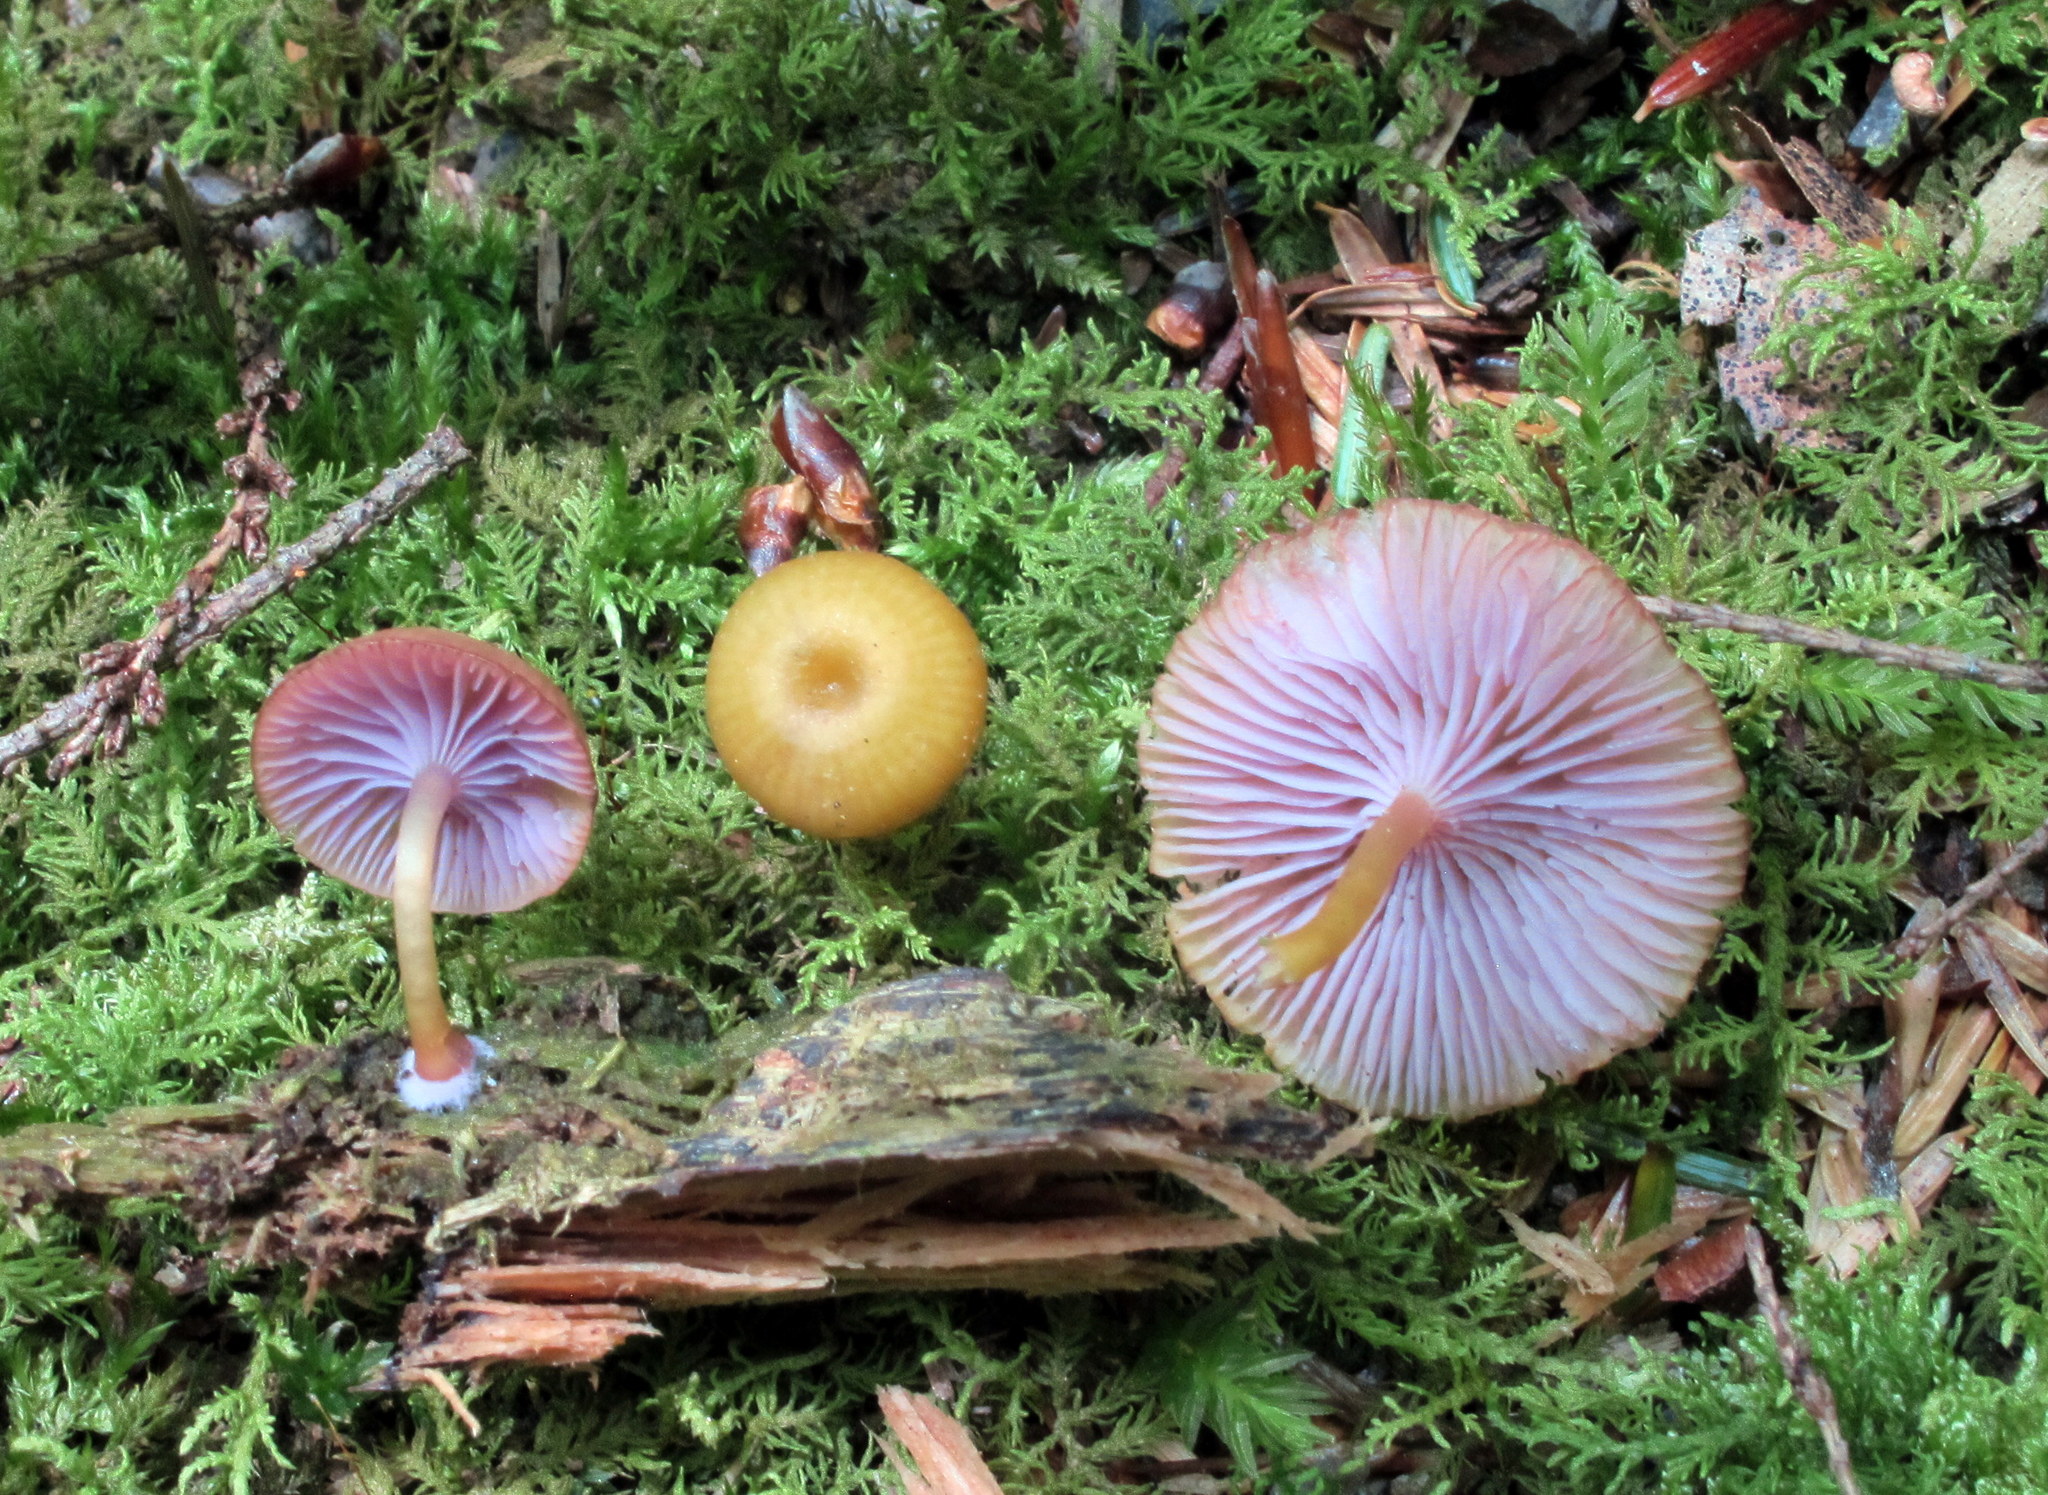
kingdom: Fungi
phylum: Basidiomycota
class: Agaricomycetes
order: Agaricales
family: Hygrophoraceae
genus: Chromosera
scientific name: Chromosera cyanophylla
